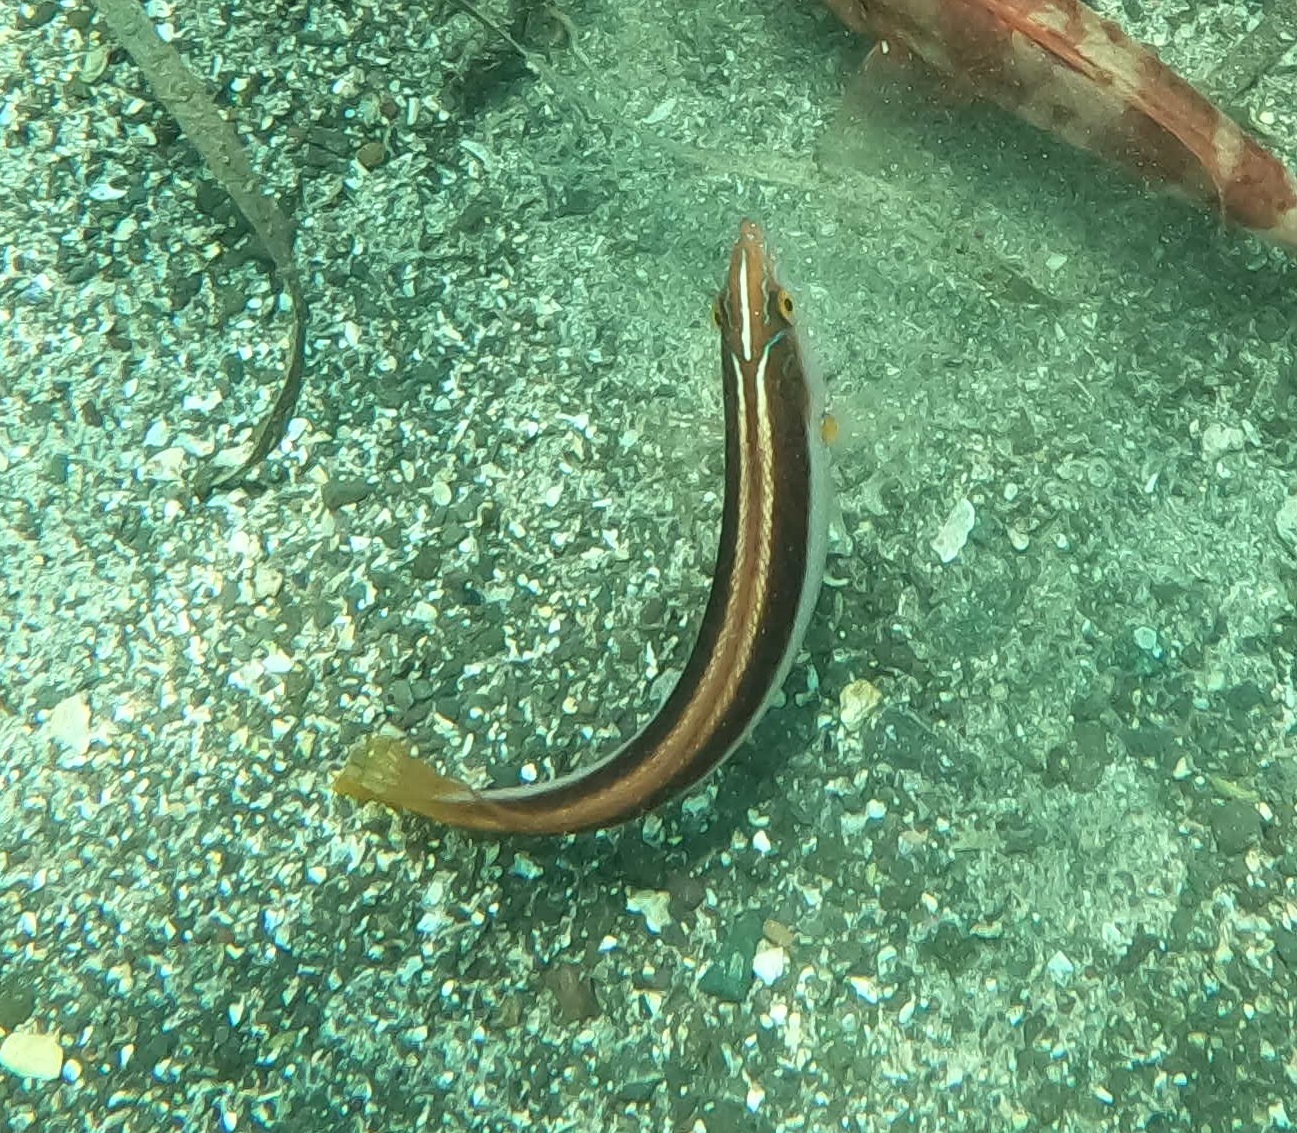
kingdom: Animalia
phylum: Chordata
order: Perciformes
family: Labridae
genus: Ophthalmolepis
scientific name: Ophthalmolepis lineolata
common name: Maori wrasse
